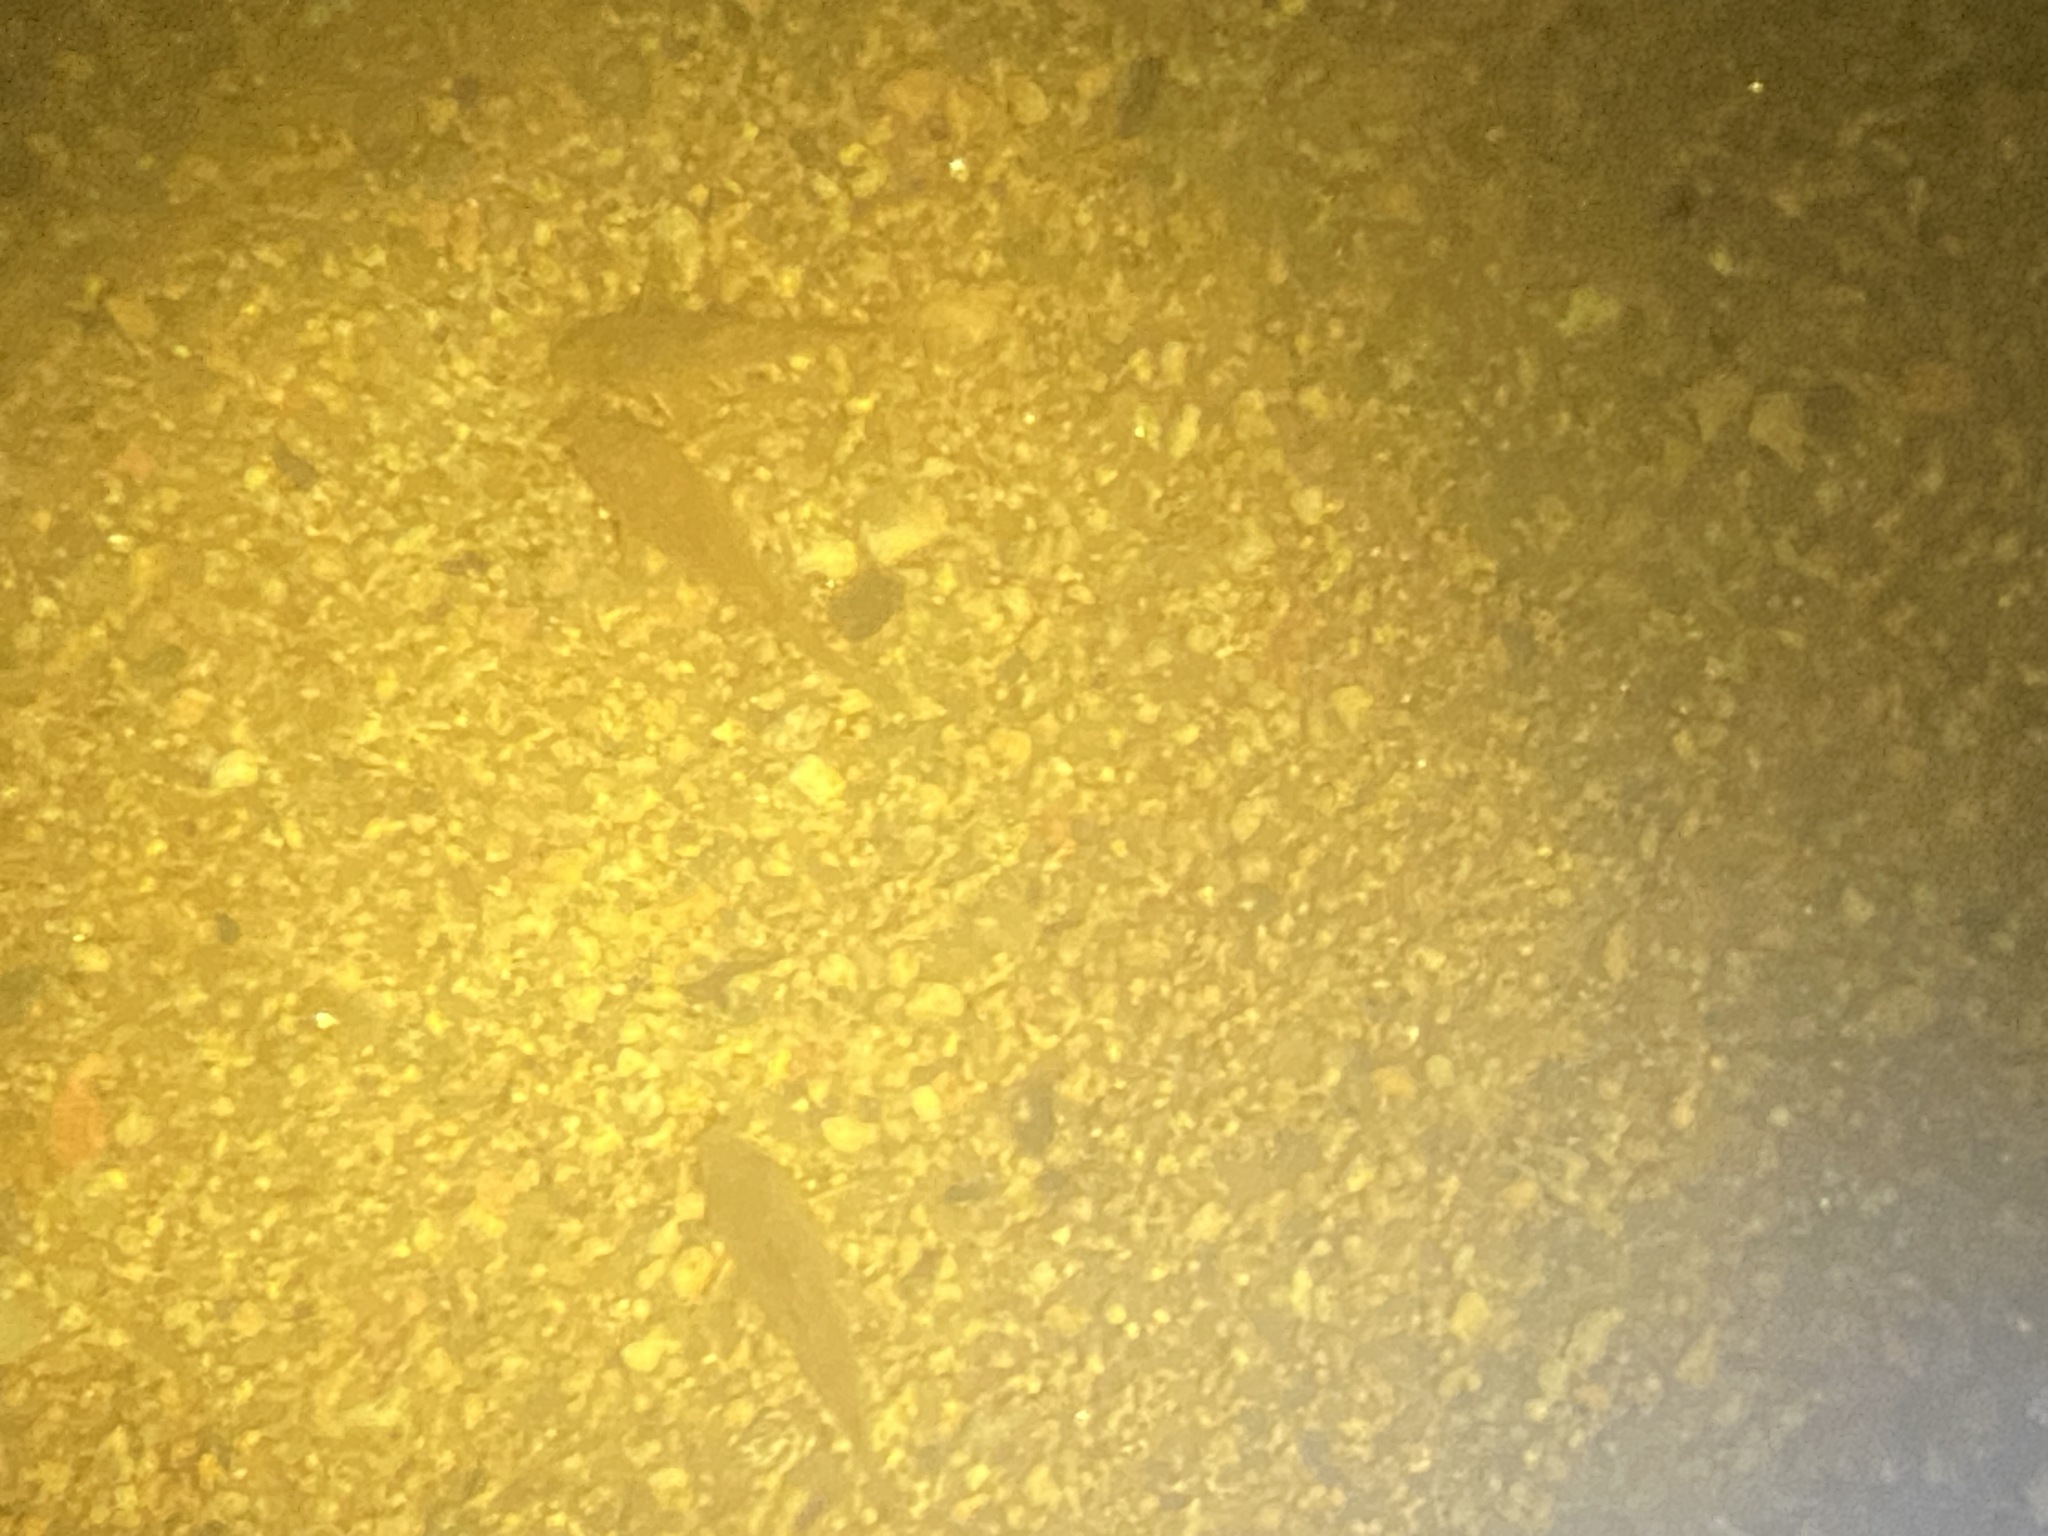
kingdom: Animalia
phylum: Chordata
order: Siluriformes
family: Callichthyidae
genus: Corydoras
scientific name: Corydoras paleatus
